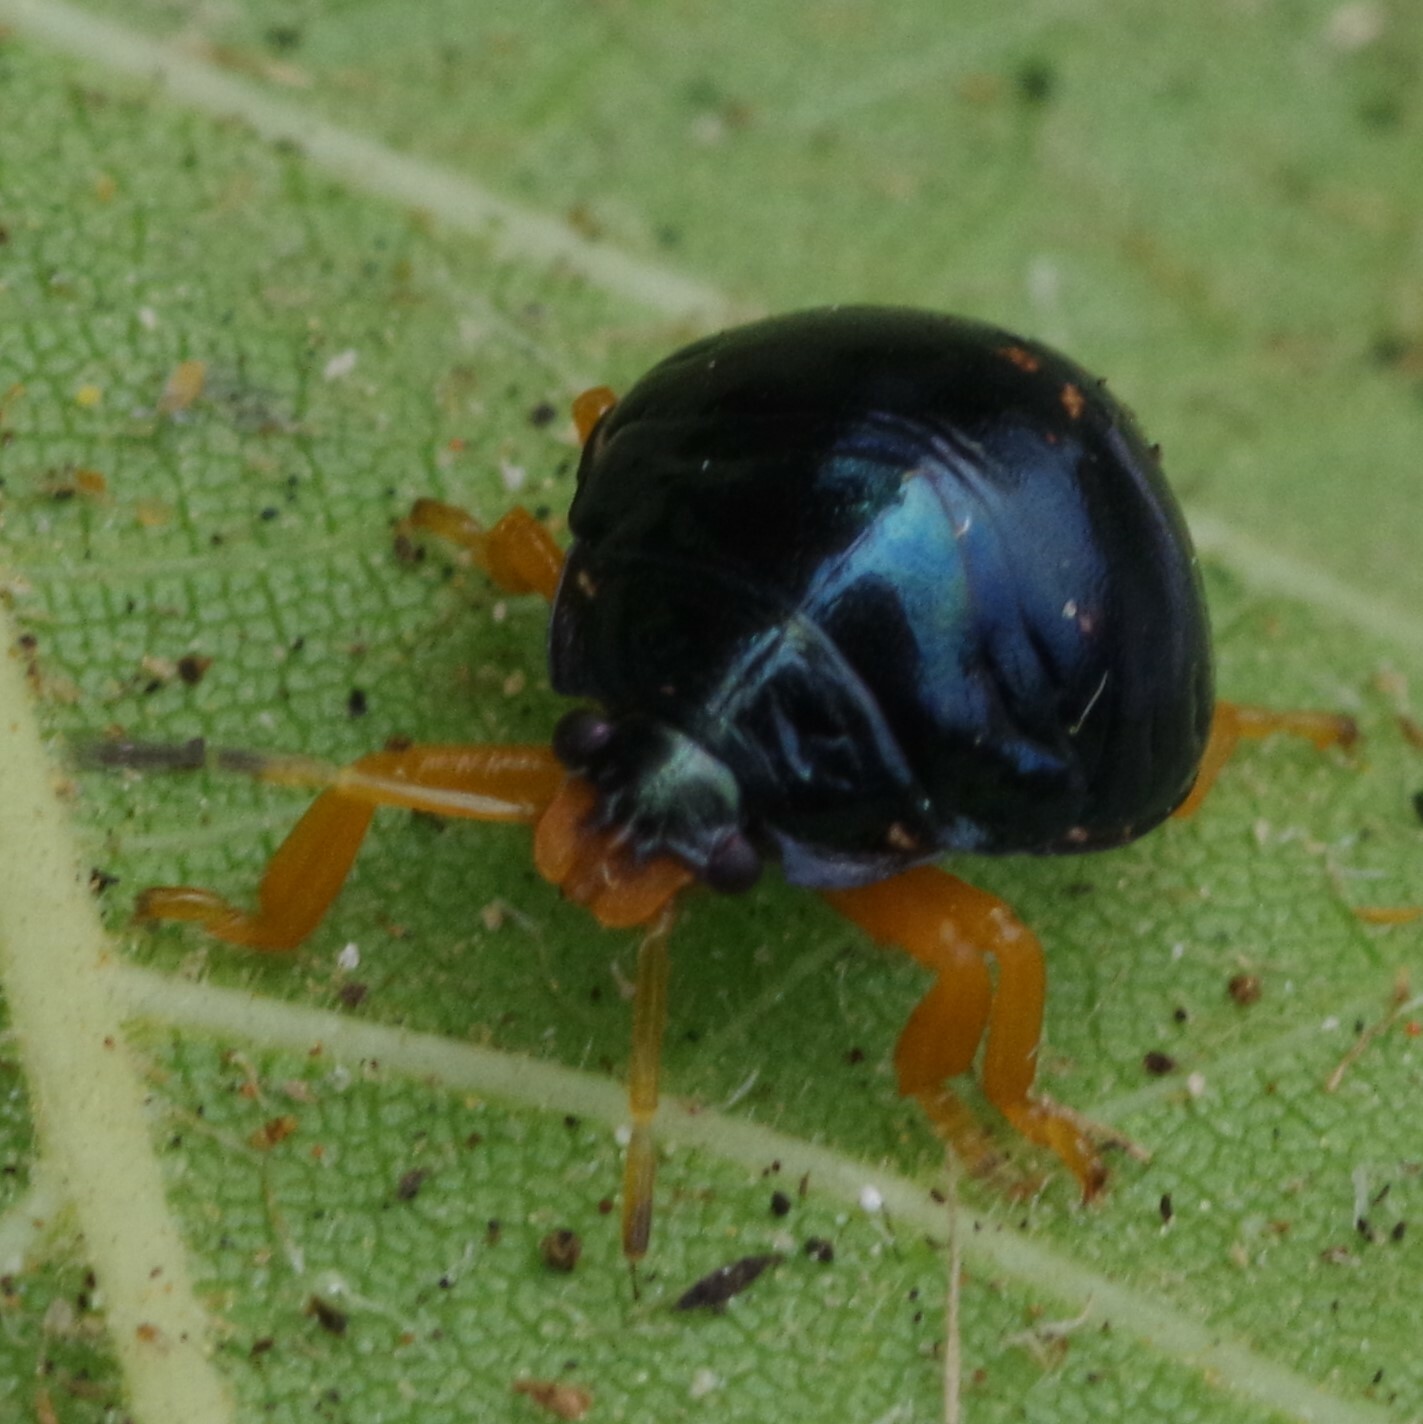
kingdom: Animalia
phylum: Arthropoda
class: Insecta
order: Hemiptera
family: Pentatomidae
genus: Stiretrus
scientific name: Stiretrus anchorago
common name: Anchor stink bug
